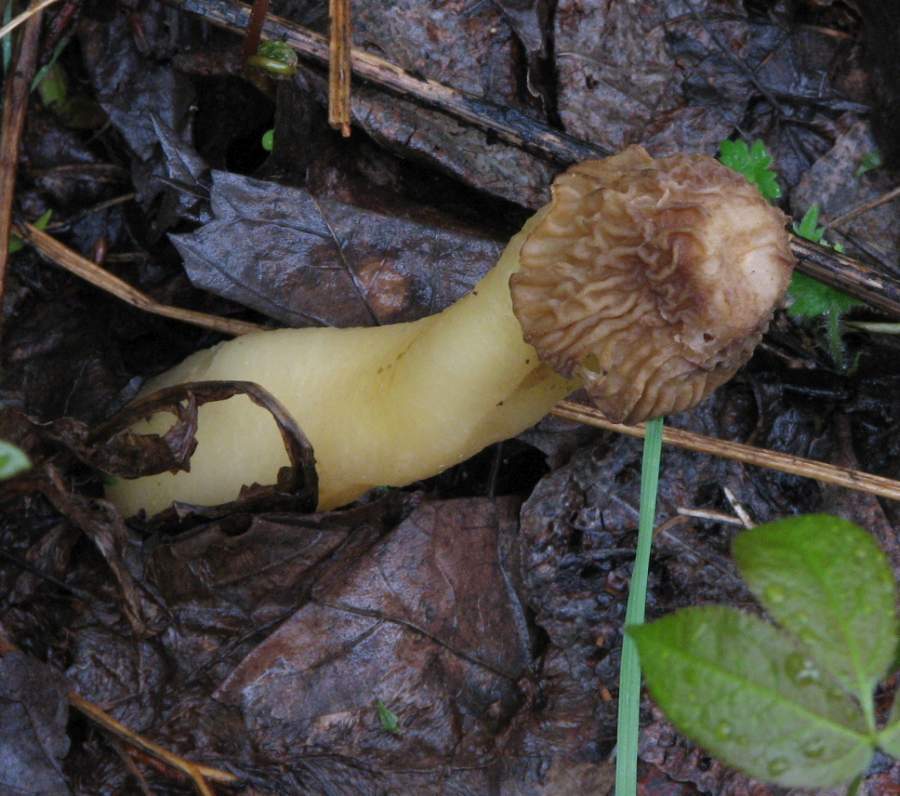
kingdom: Fungi
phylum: Ascomycota
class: Pezizomycetes
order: Pezizales
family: Morchellaceae
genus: Verpa
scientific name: Verpa bohemica
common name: Wrinkled thimble morel
